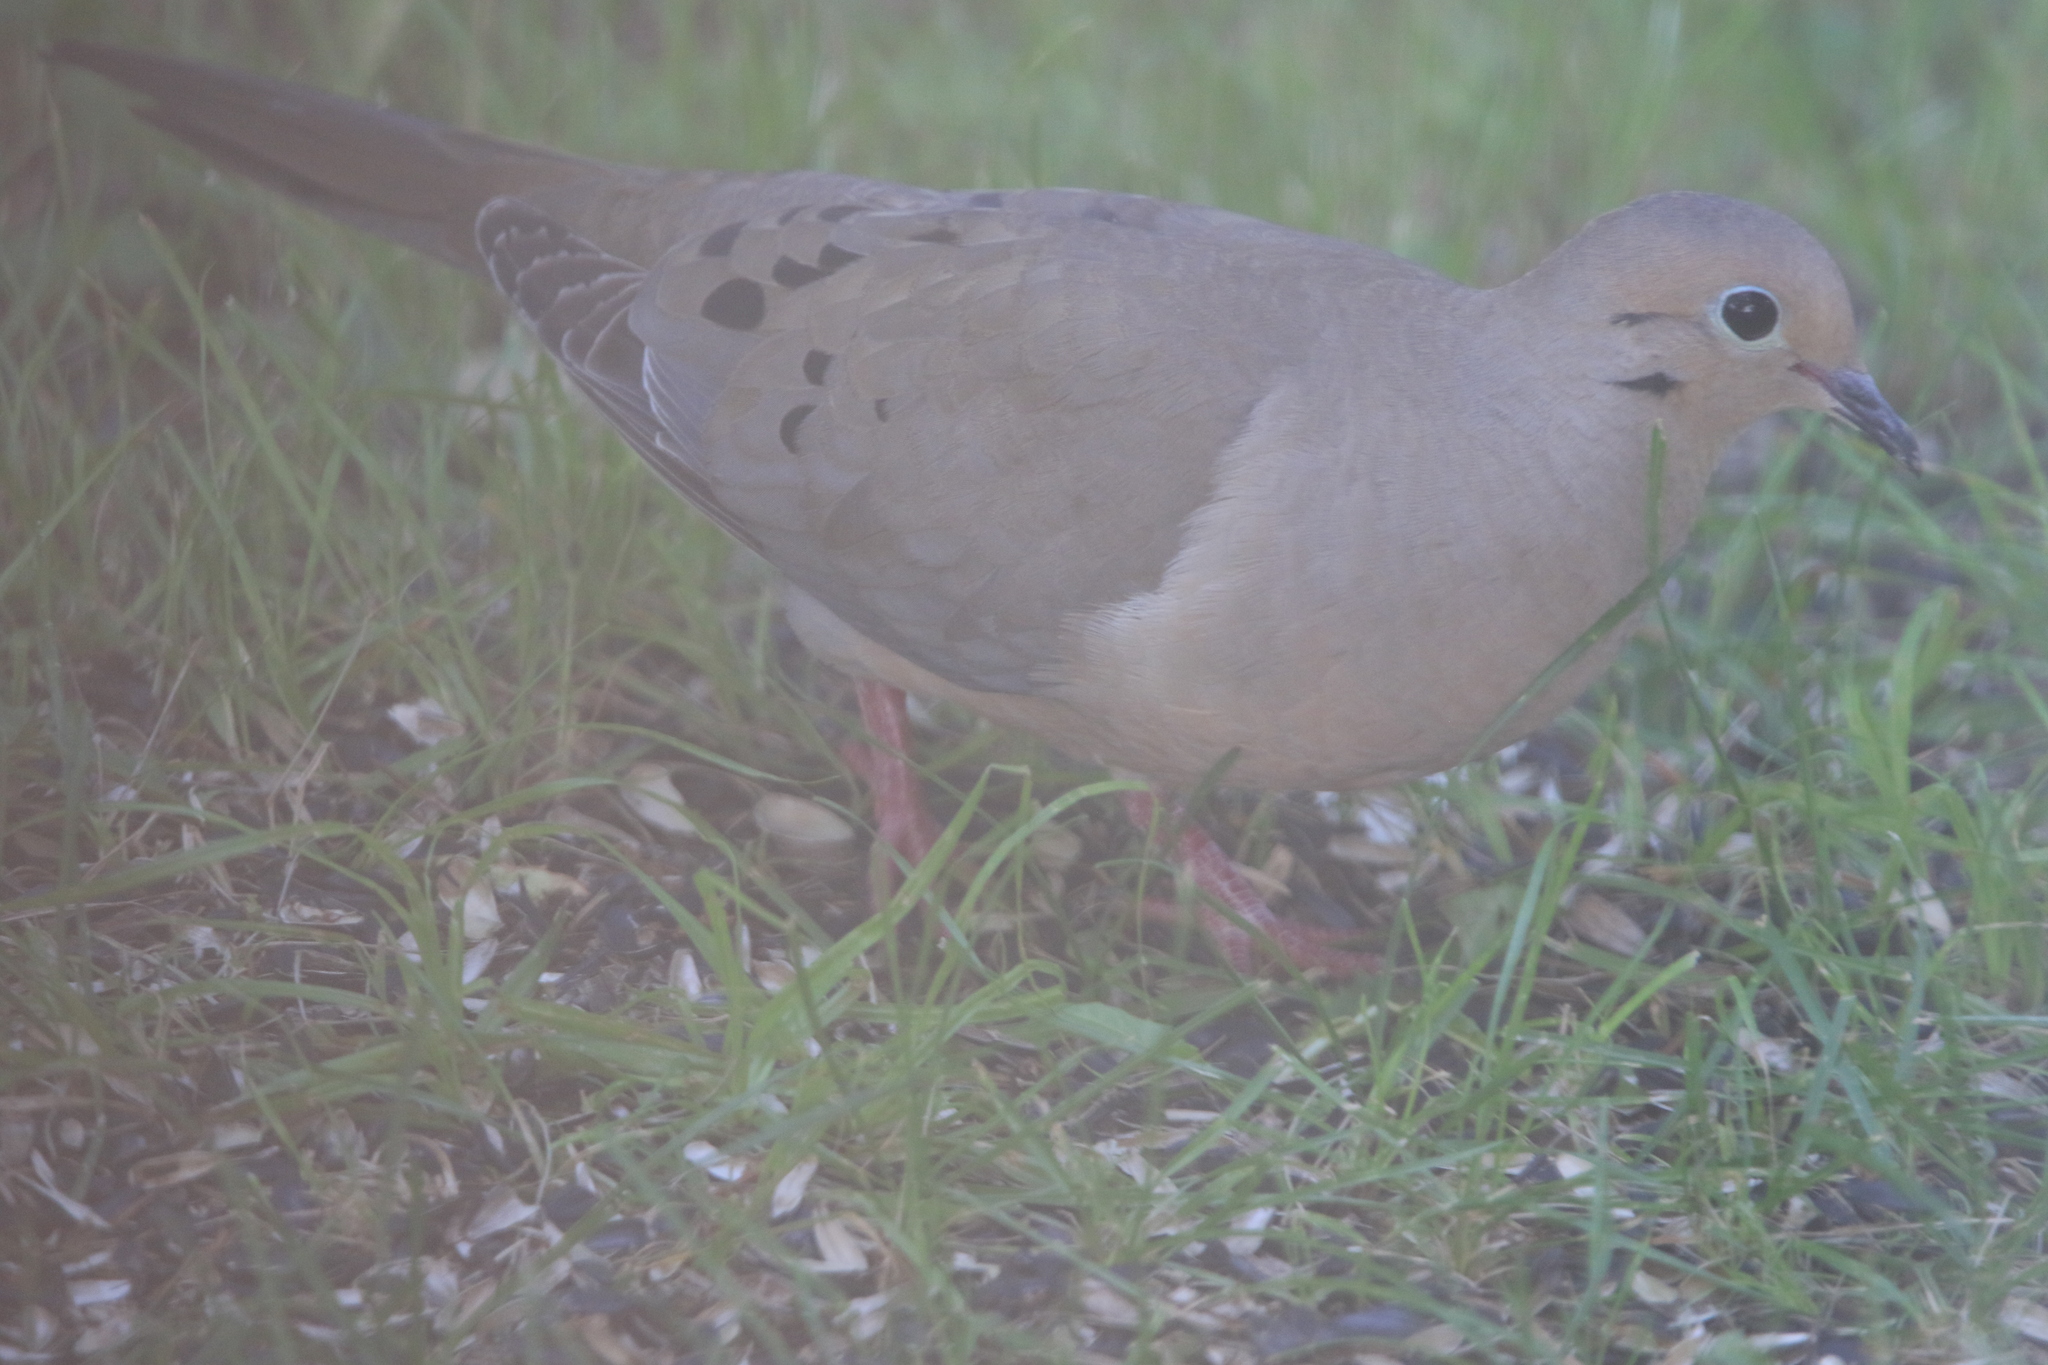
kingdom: Animalia
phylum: Chordata
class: Aves
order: Columbiformes
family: Columbidae
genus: Zenaida
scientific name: Zenaida macroura
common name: Mourning dove
